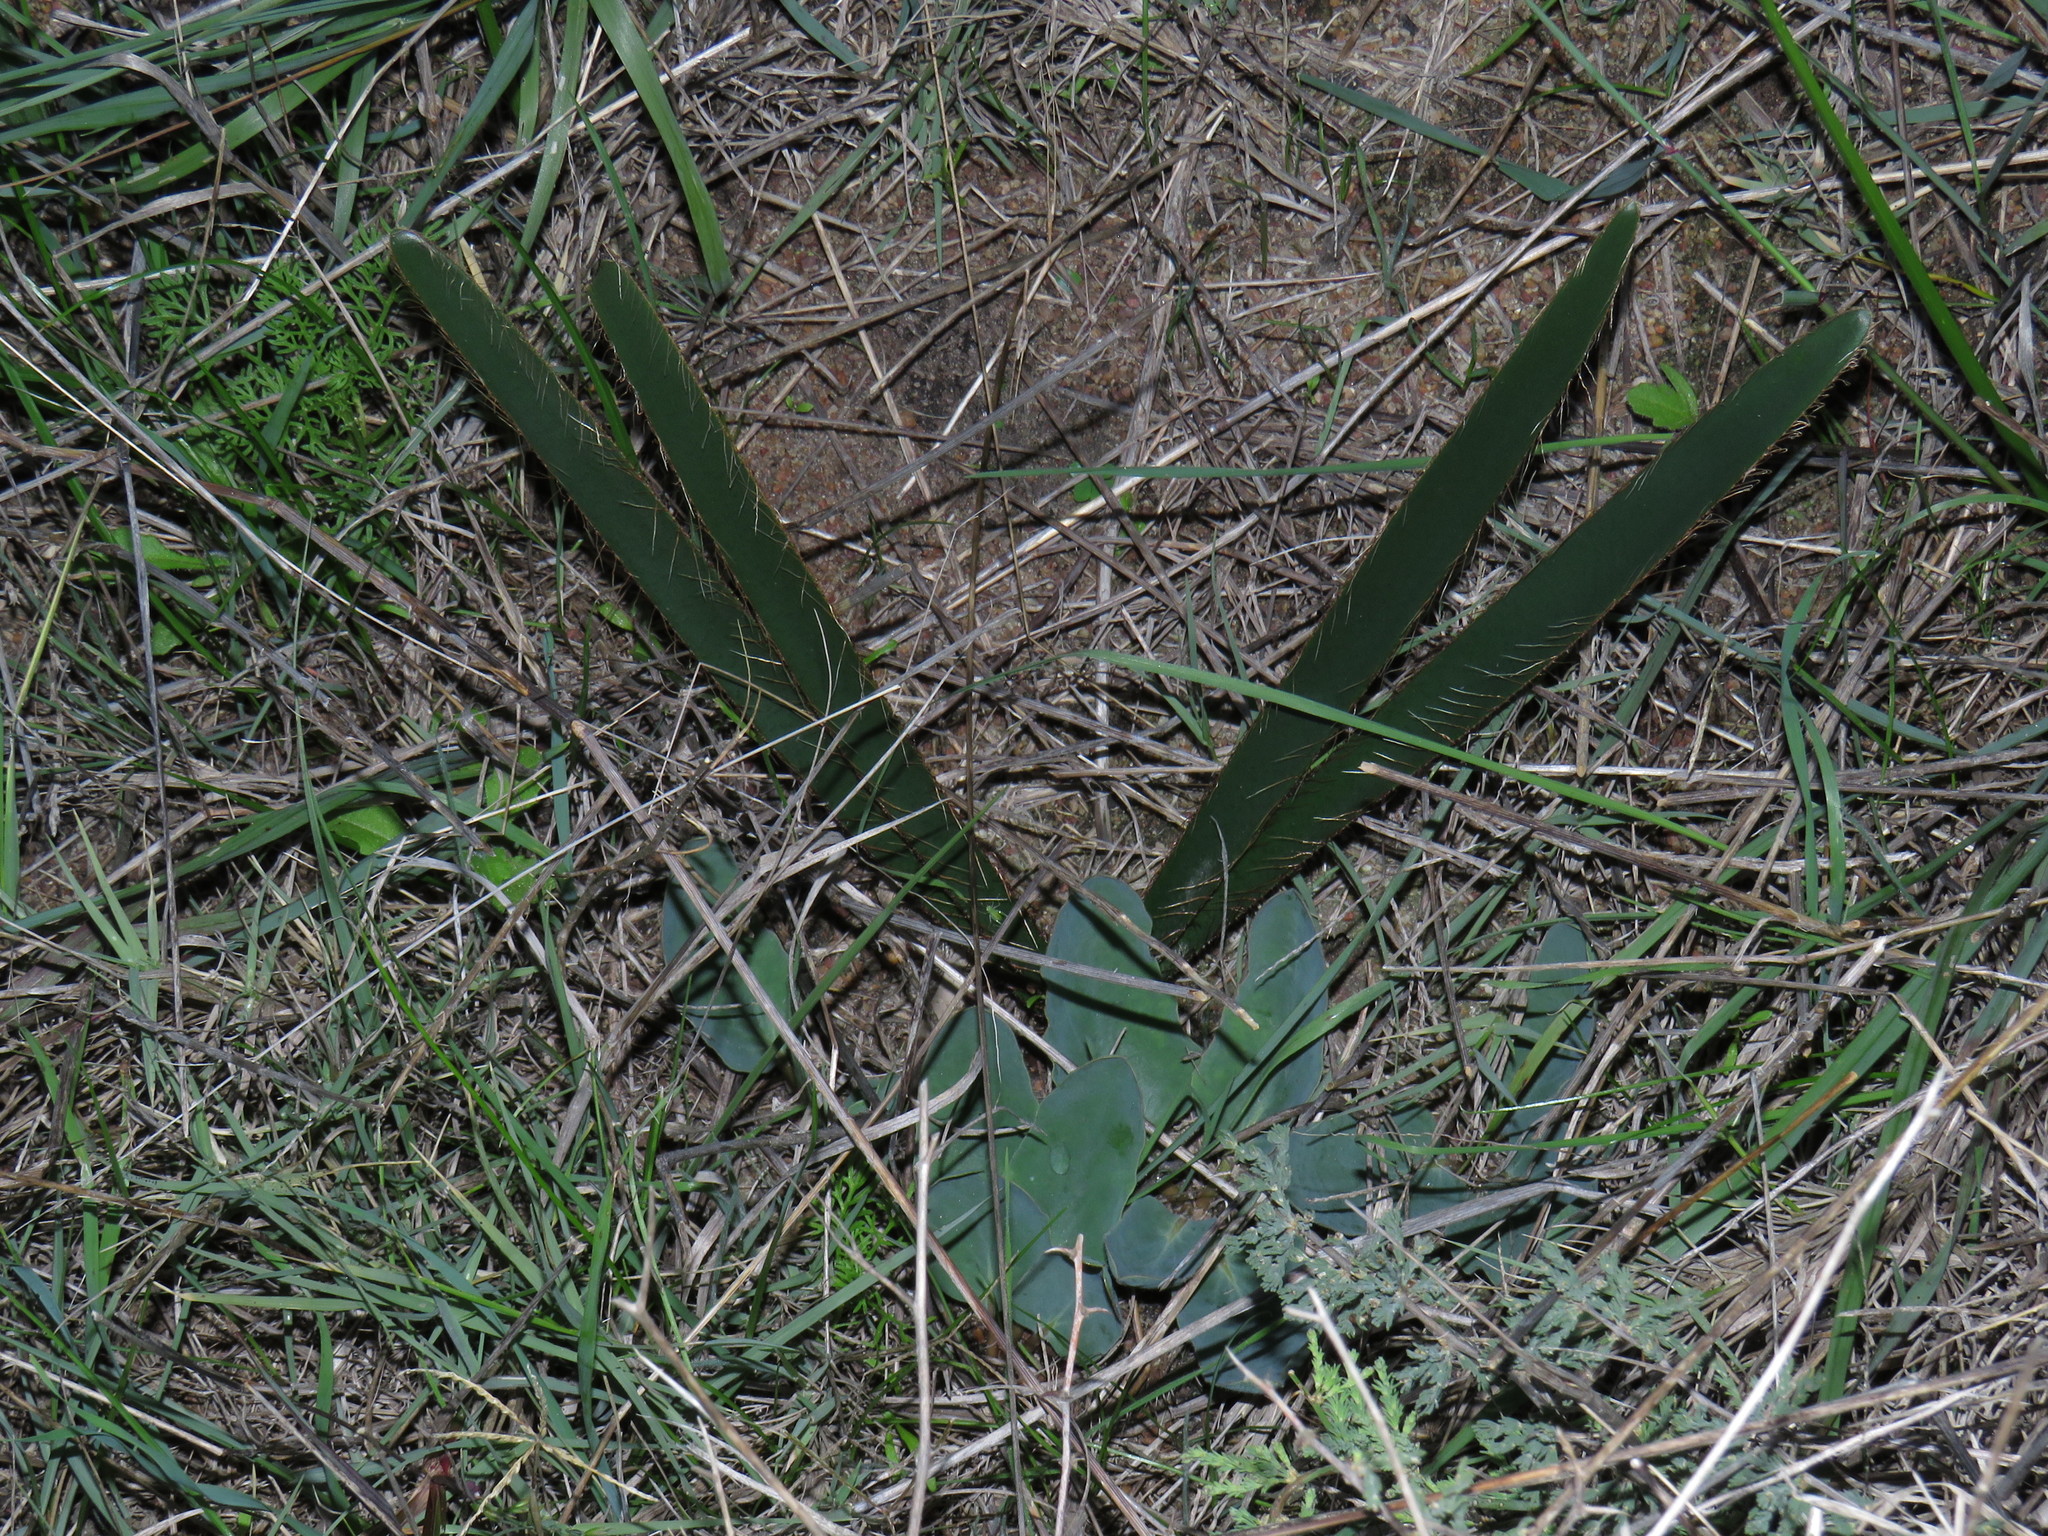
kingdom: Plantae
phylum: Tracheophyta
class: Liliopsida
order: Asparagales
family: Amaryllidaceae
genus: Crossyne
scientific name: Crossyne guttata
